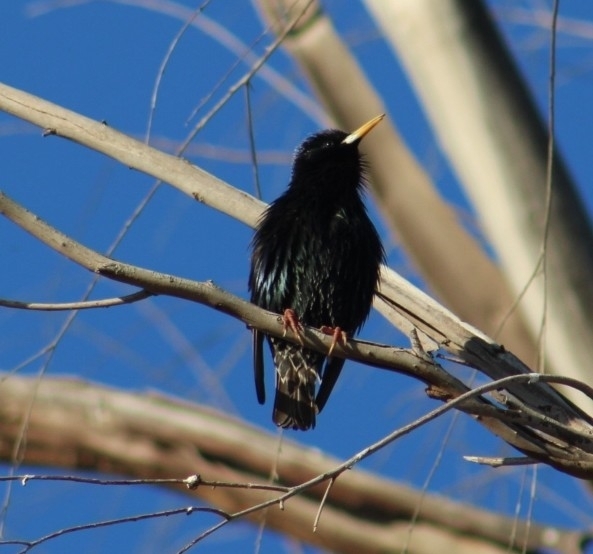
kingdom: Animalia
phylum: Chordata
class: Aves
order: Passeriformes
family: Sturnidae
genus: Sturnus
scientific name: Sturnus vulgaris
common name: Common starling
